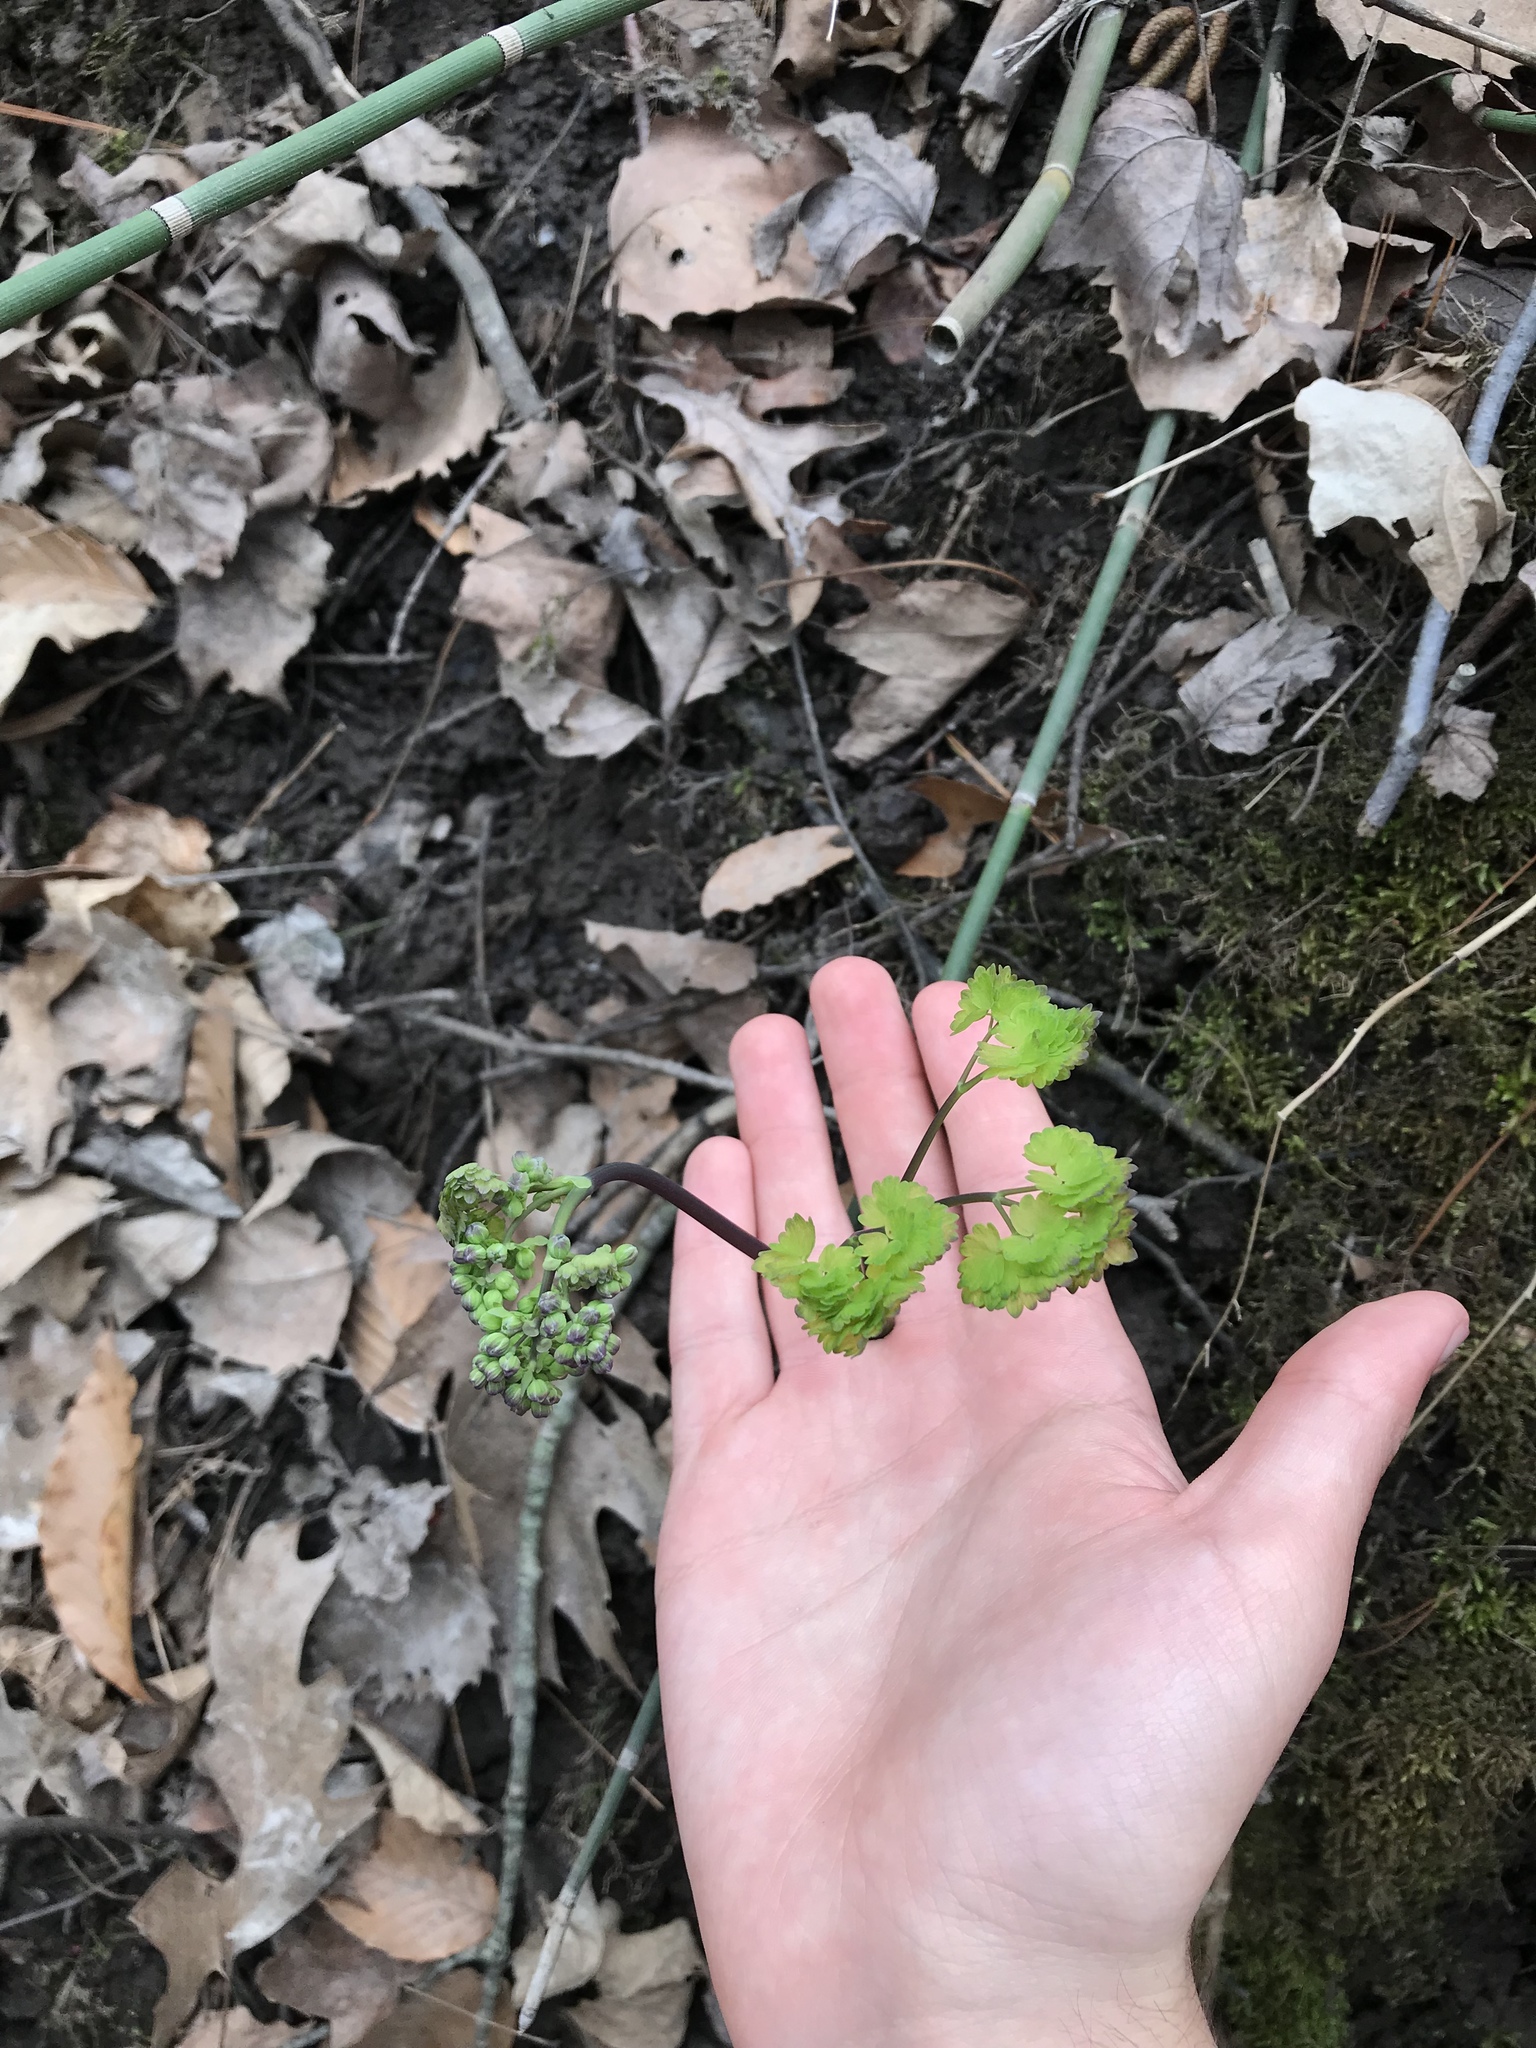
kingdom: Plantae
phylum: Tracheophyta
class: Magnoliopsida
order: Ranunculales
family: Ranunculaceae
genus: Thalictrum
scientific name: Thalictrum dioicum
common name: Early meadow-rue
